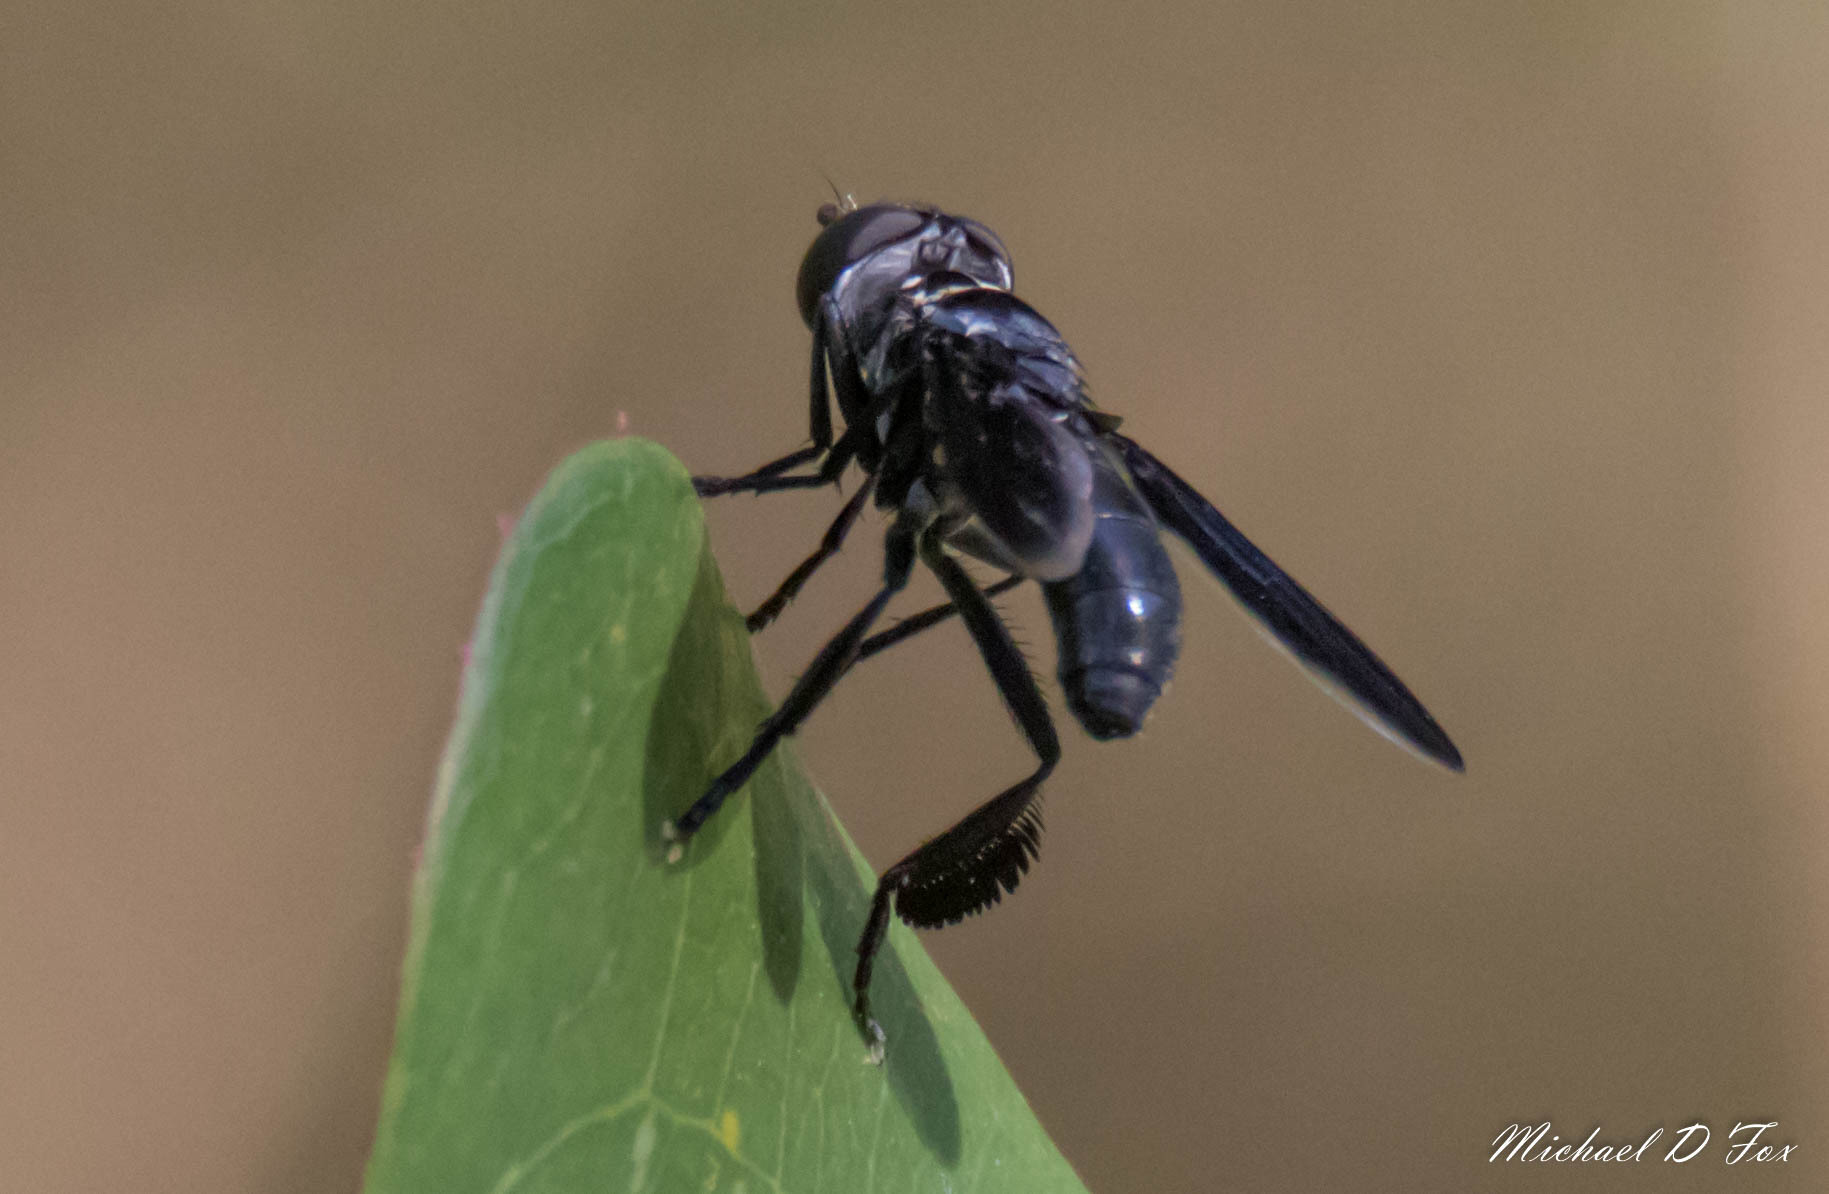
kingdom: Animalia
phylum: Arthropoda
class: Insecta
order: Diptera
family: Tachinidae
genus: Trichopoda
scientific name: Trichopoda lanipes
